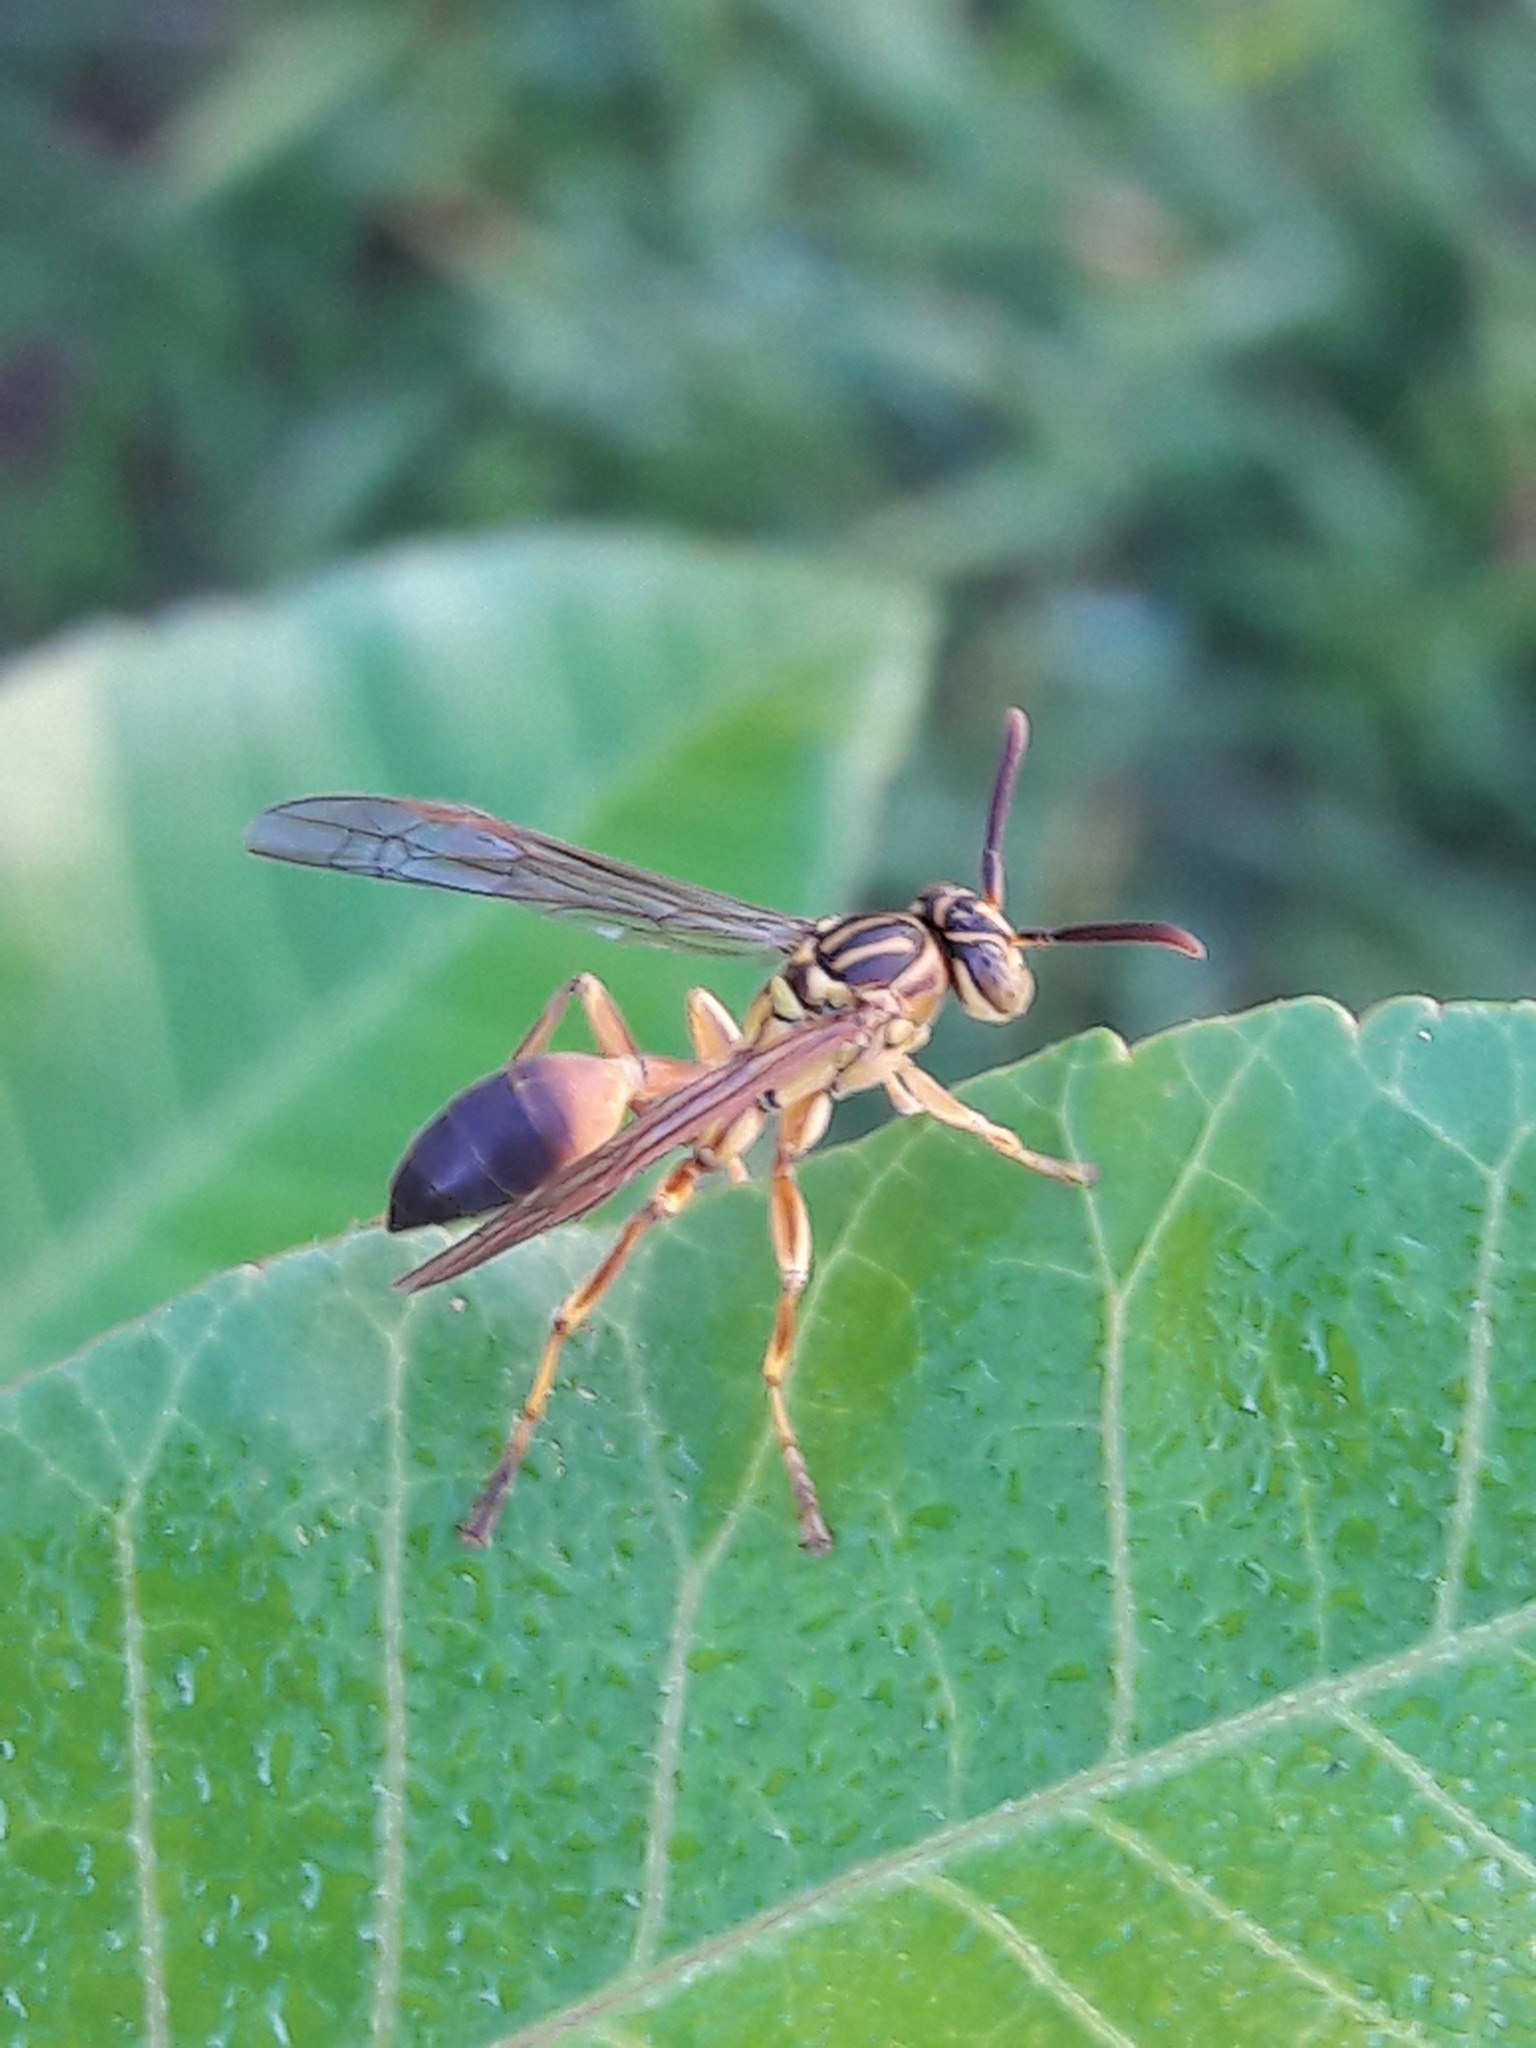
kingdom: Animalia
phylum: Arthropoda
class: Insecta
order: Hymenoptera
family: Vespidae
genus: Mischocyttarus
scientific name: Mischocyttarus cerberus
